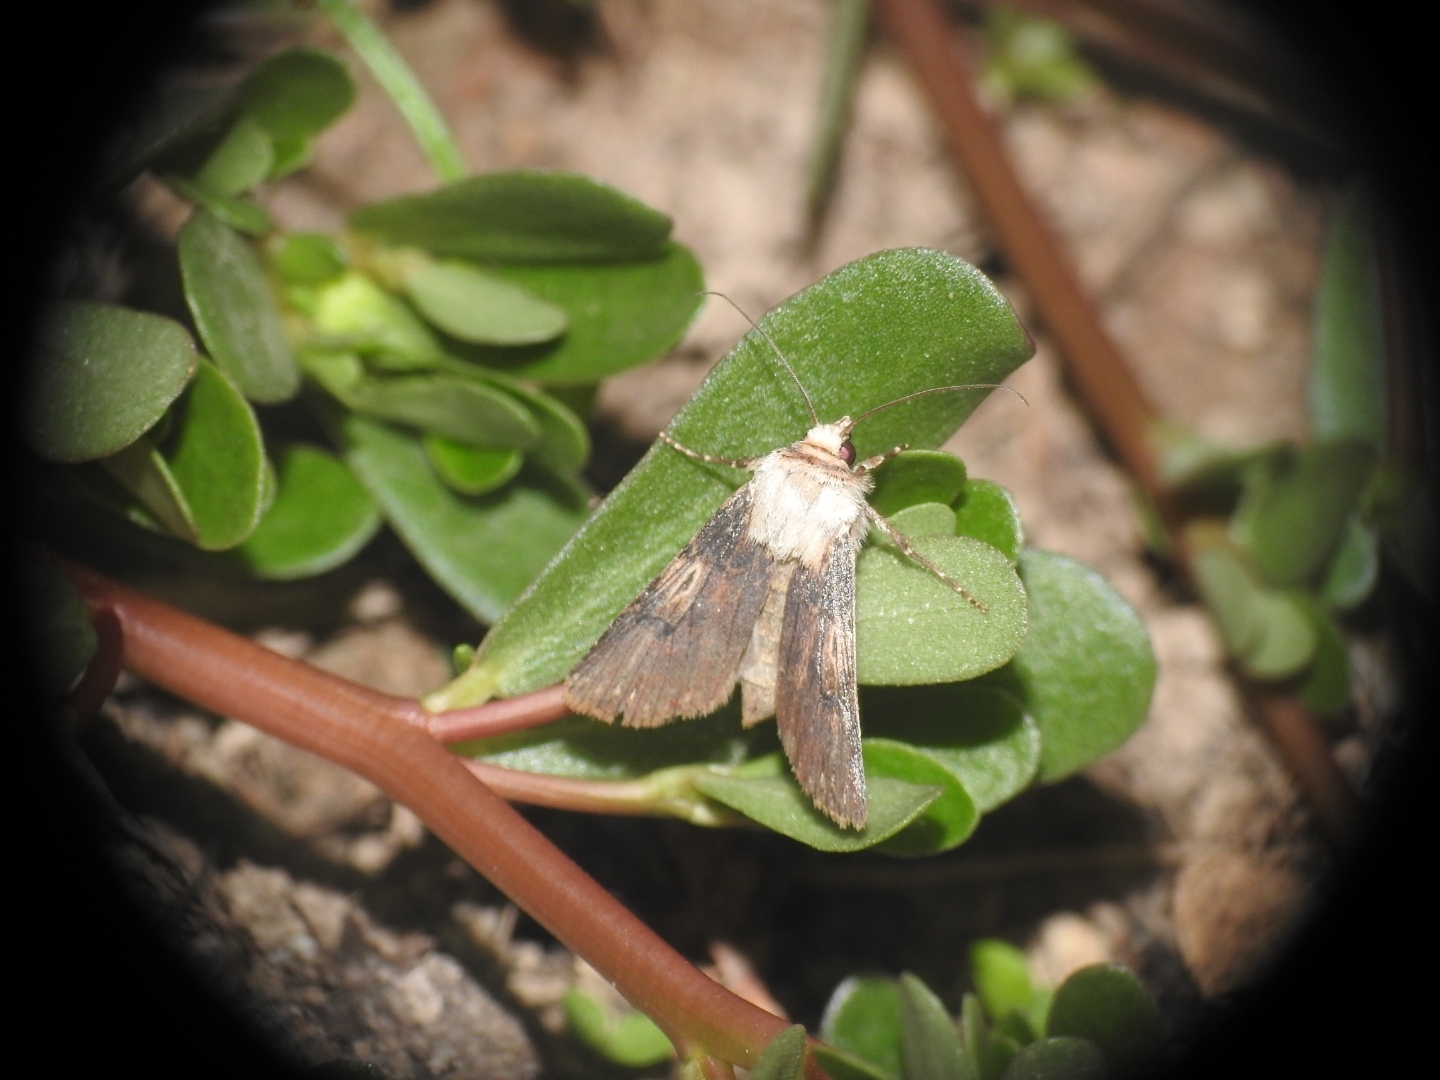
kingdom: Animalia
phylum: Arthropoda
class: Insecta
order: Lepidoptera
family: Noctuidae
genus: Agrotis
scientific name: Agrotis puta
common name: Shuttle-shaped dart
